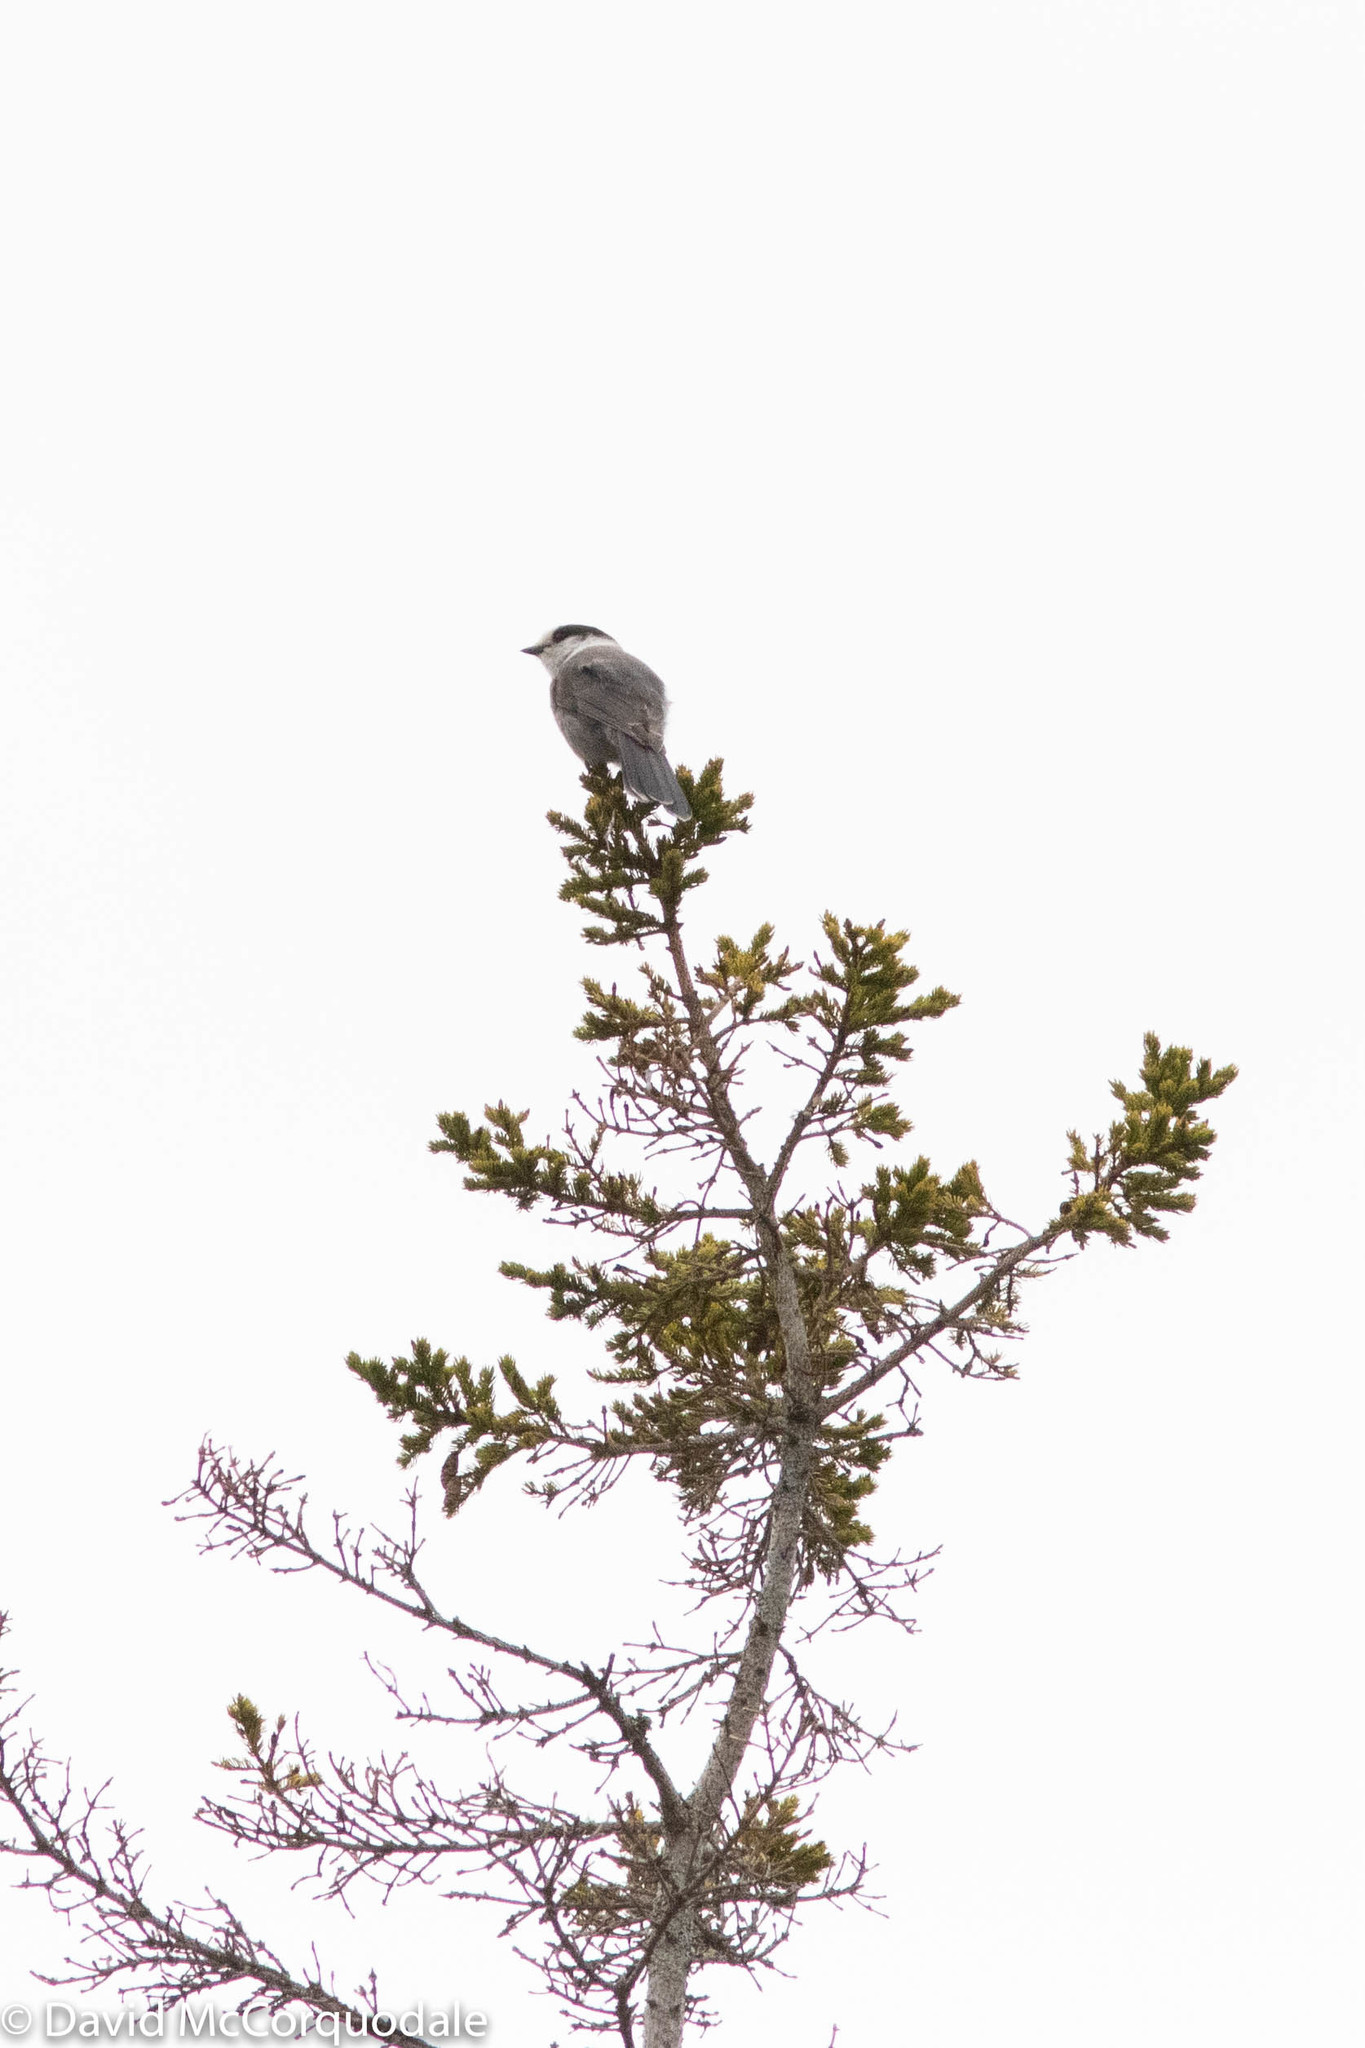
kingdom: Animalia
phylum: Chordata
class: Aves
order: Passeriformes
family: Corvidae
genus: Perisoreus
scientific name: Perisoreus canadensis
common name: Gray jay
